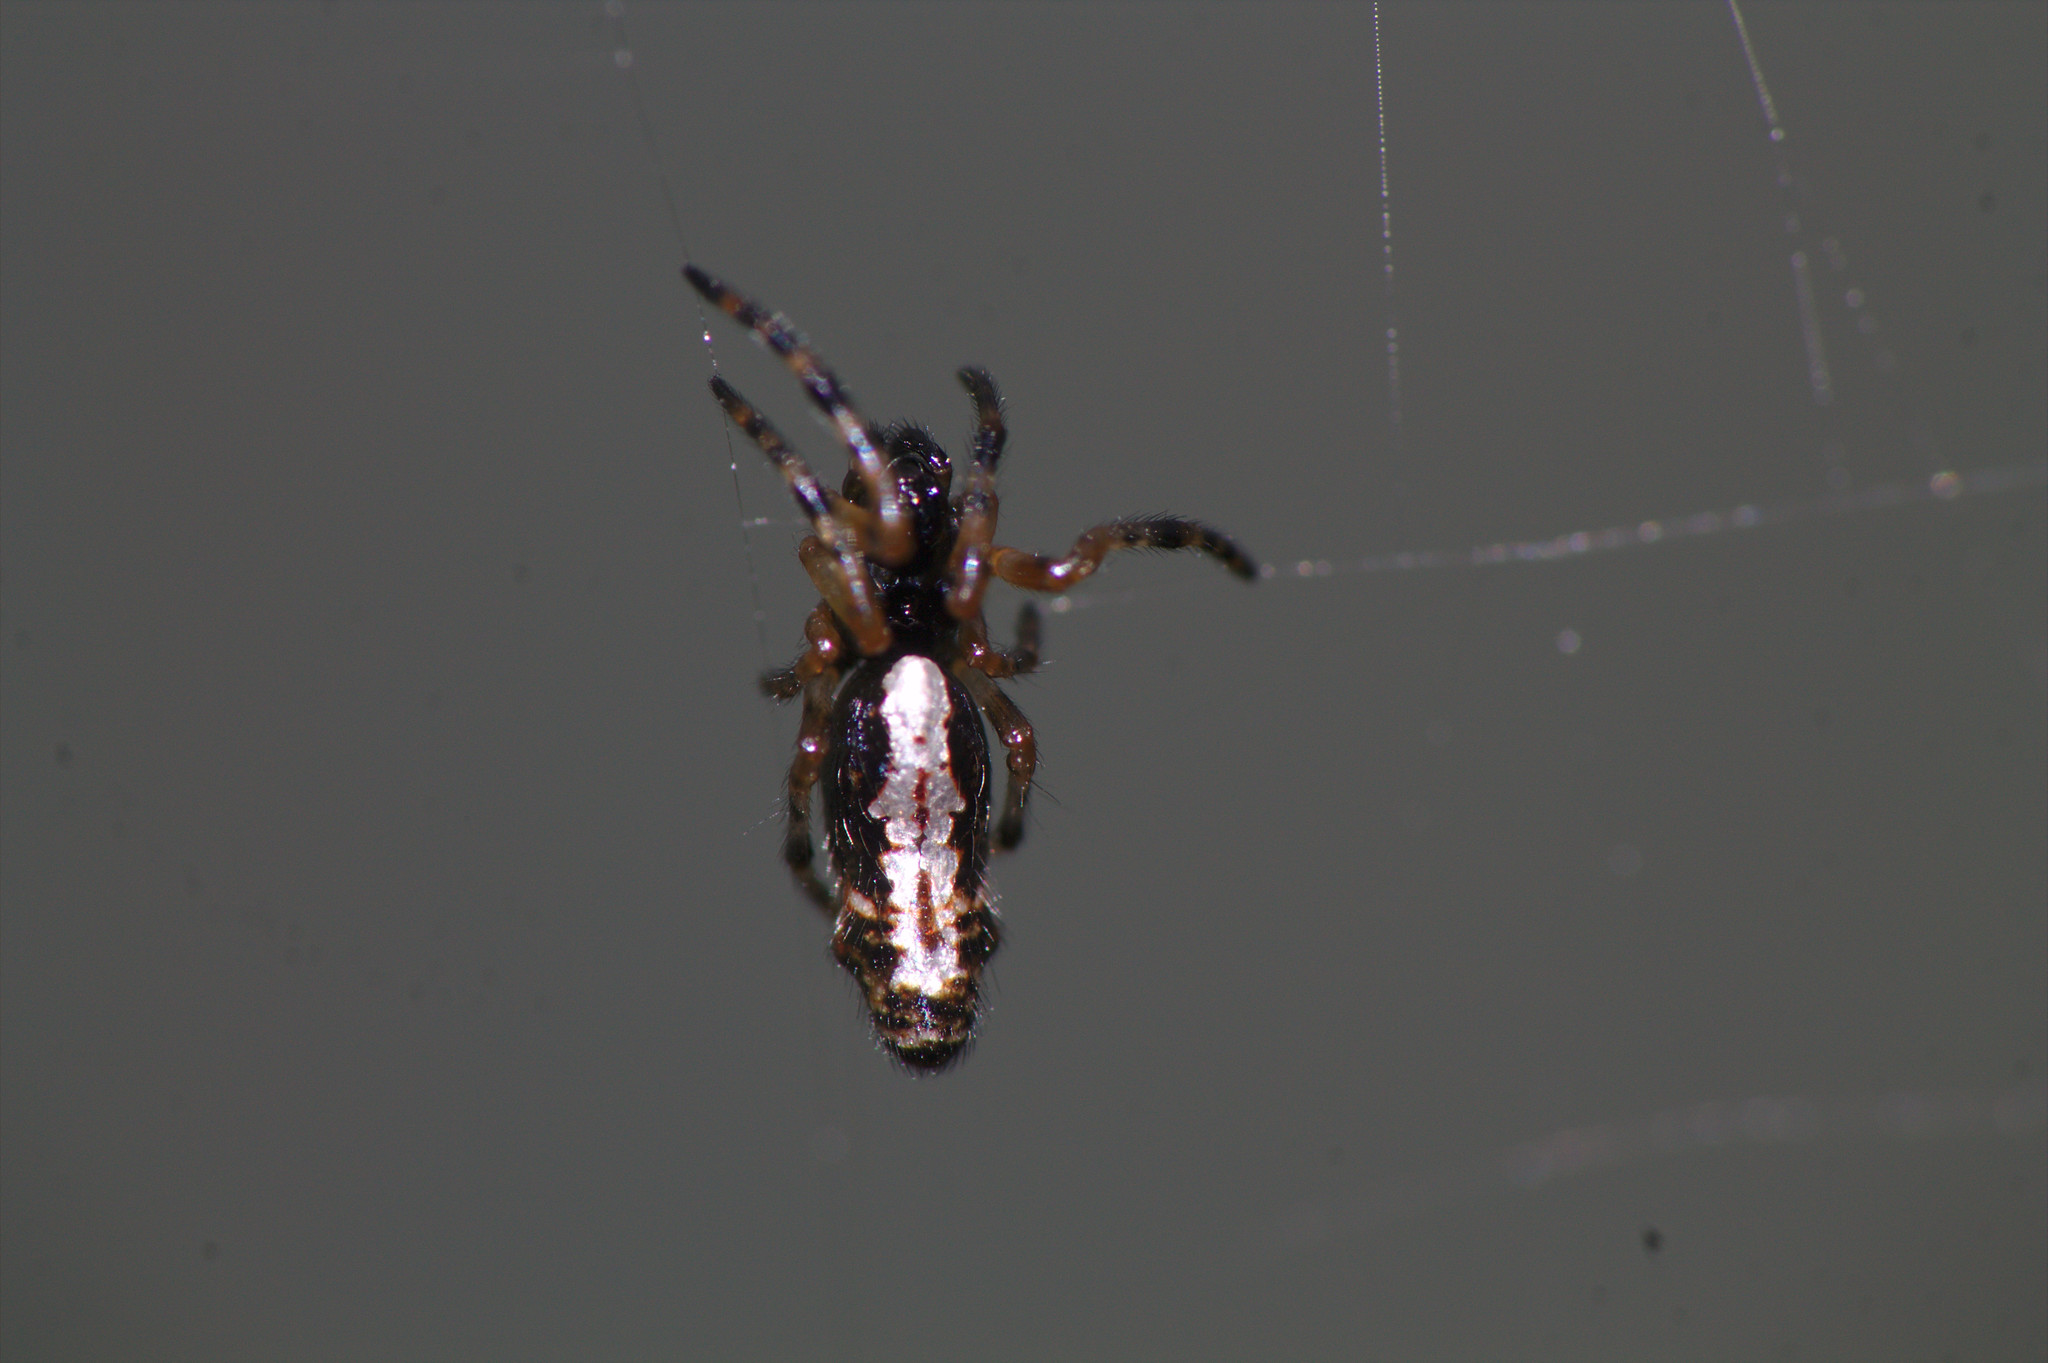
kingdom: Animalia
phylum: Arthropoda
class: Arachnida
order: Araneae
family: Araneidae
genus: Cyclosa
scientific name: Cyclosa trilobata
